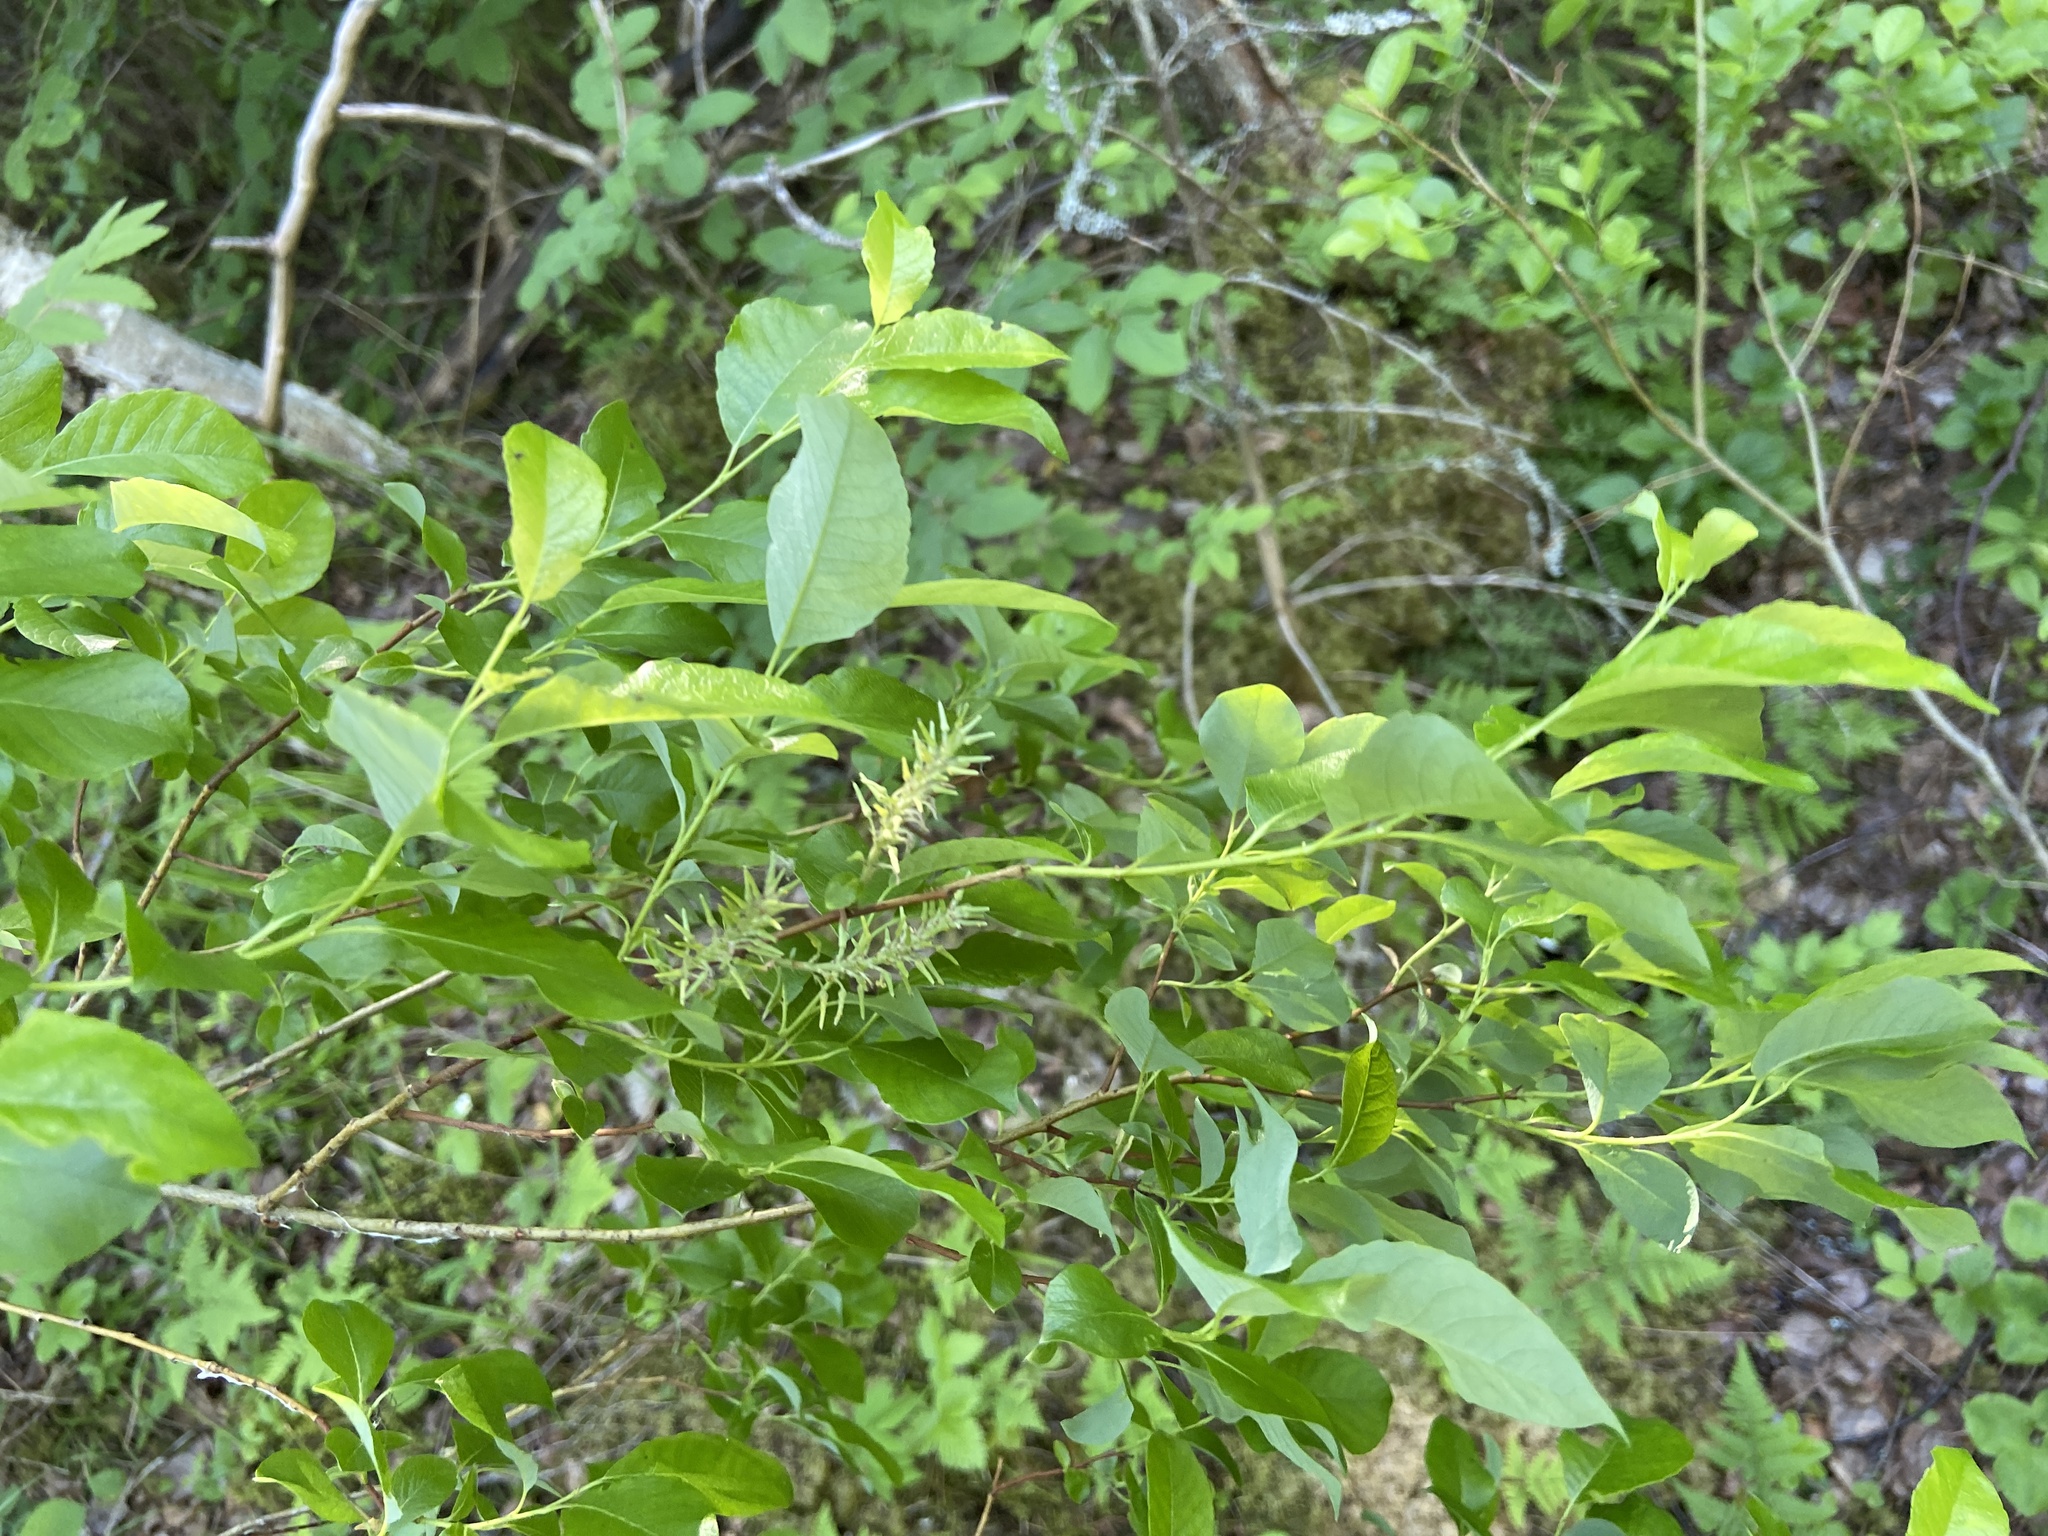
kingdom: Plantae
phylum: Tracheophyta
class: Magnoliopsida
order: Malpighiales
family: Salicaceae
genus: Salix
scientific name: Salix starkeana
